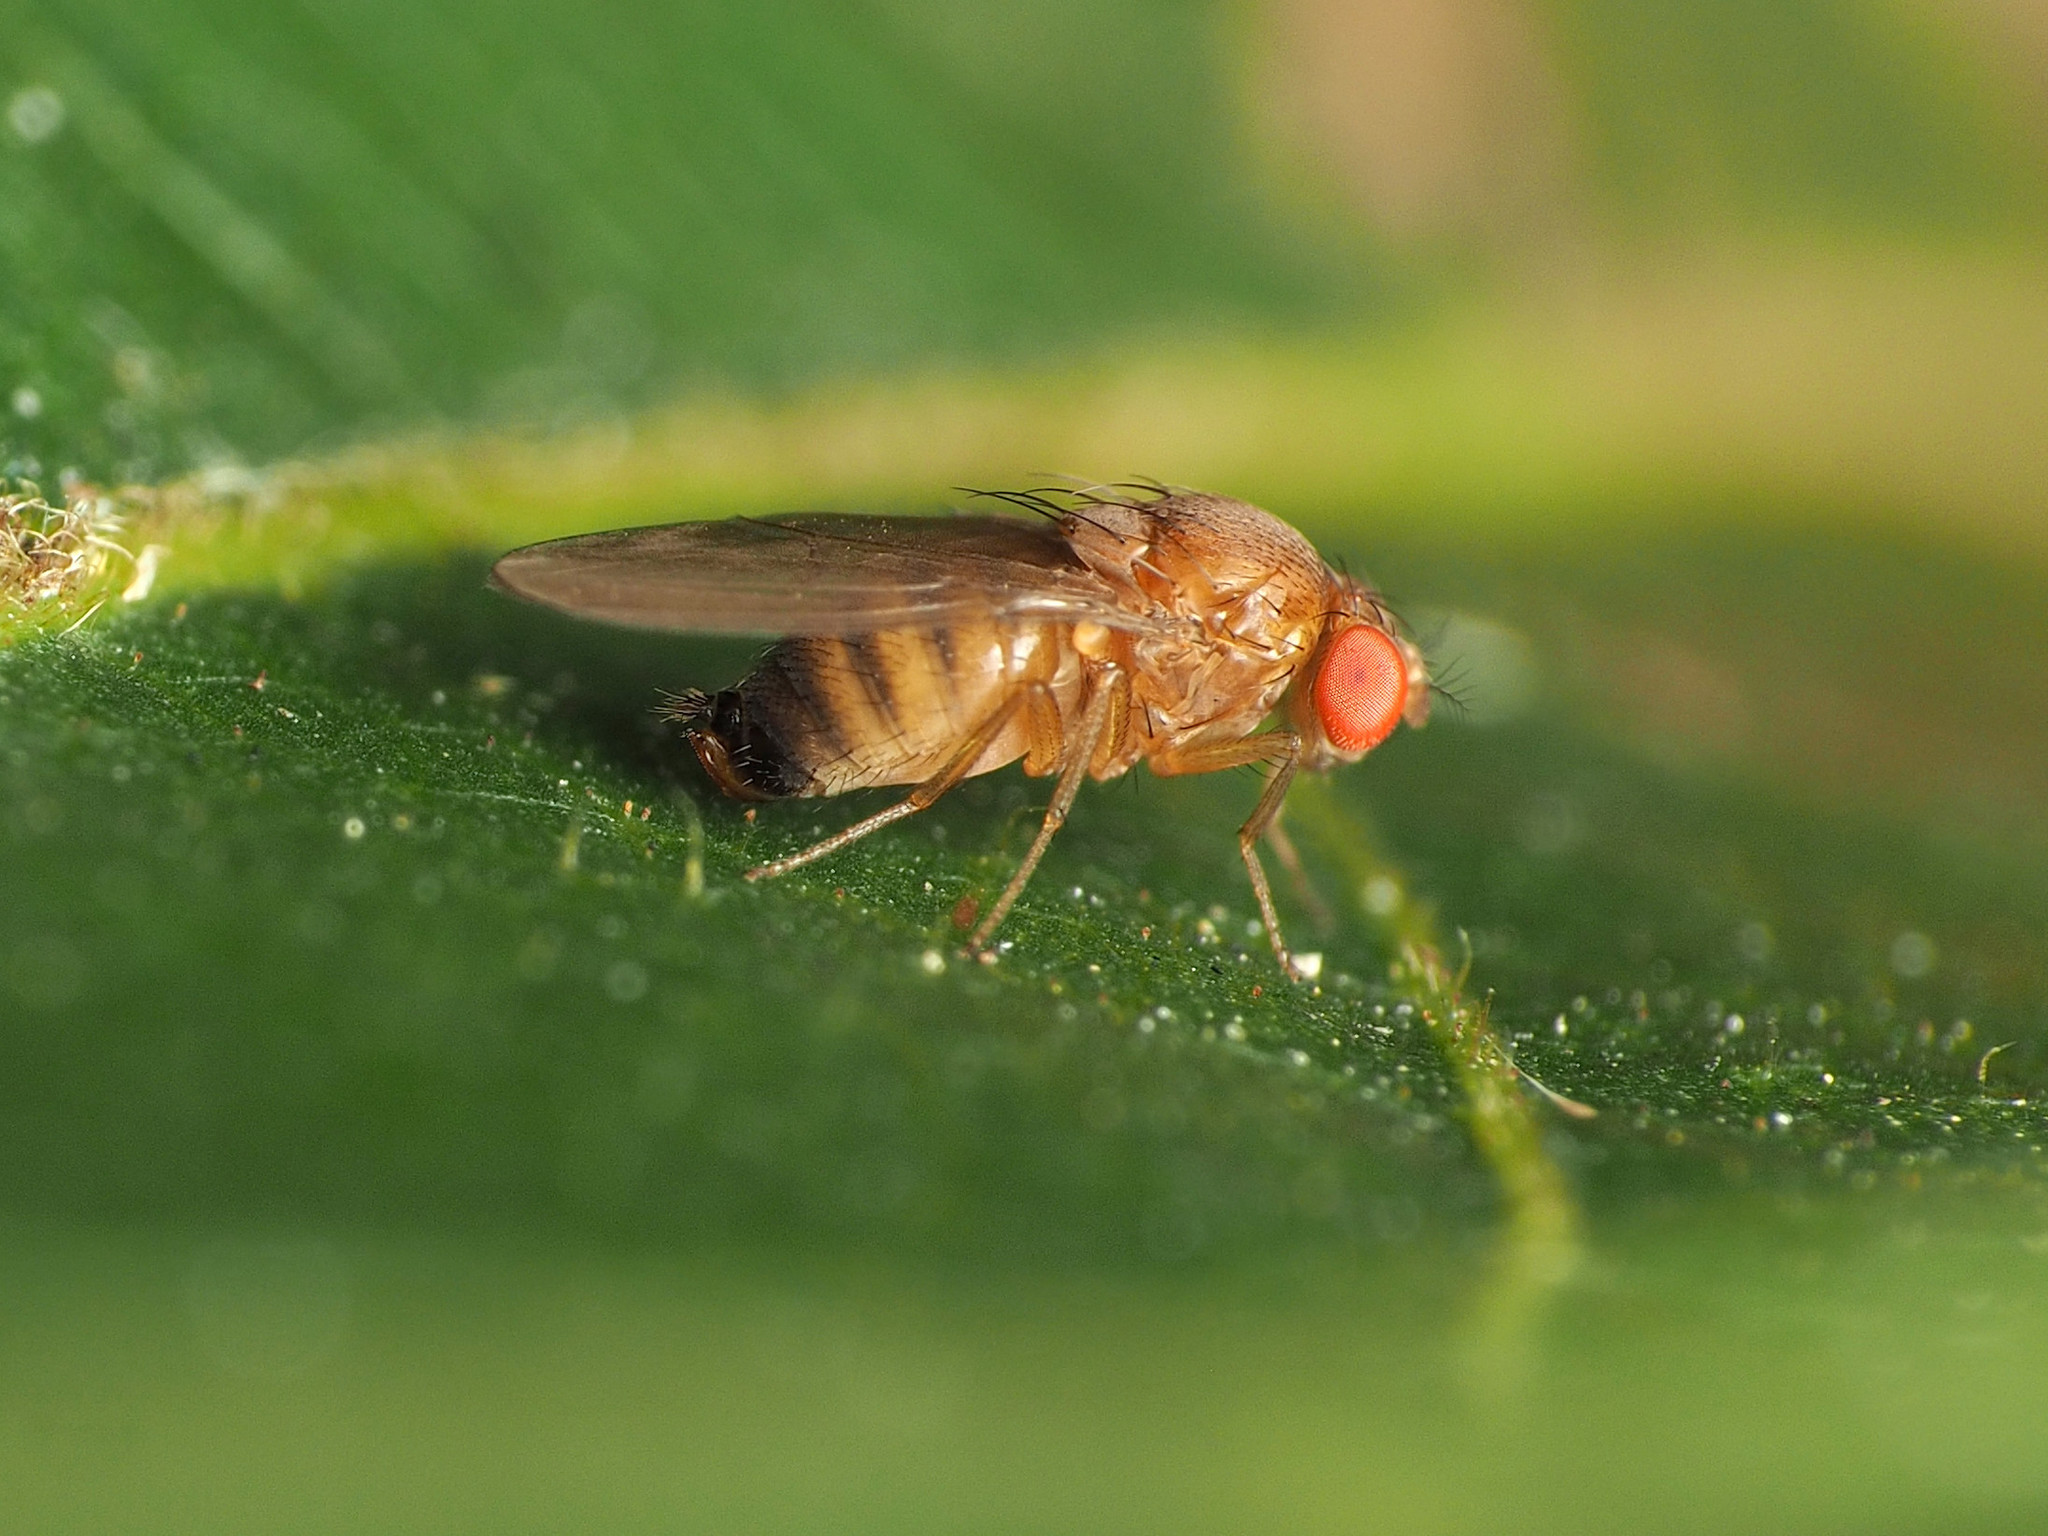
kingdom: Animalia
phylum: Arthropoda
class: Insecta
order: Diptera
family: Drosophilidae
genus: Drosophila
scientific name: Drosophila suzukii
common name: Spotted-wing drosophila
